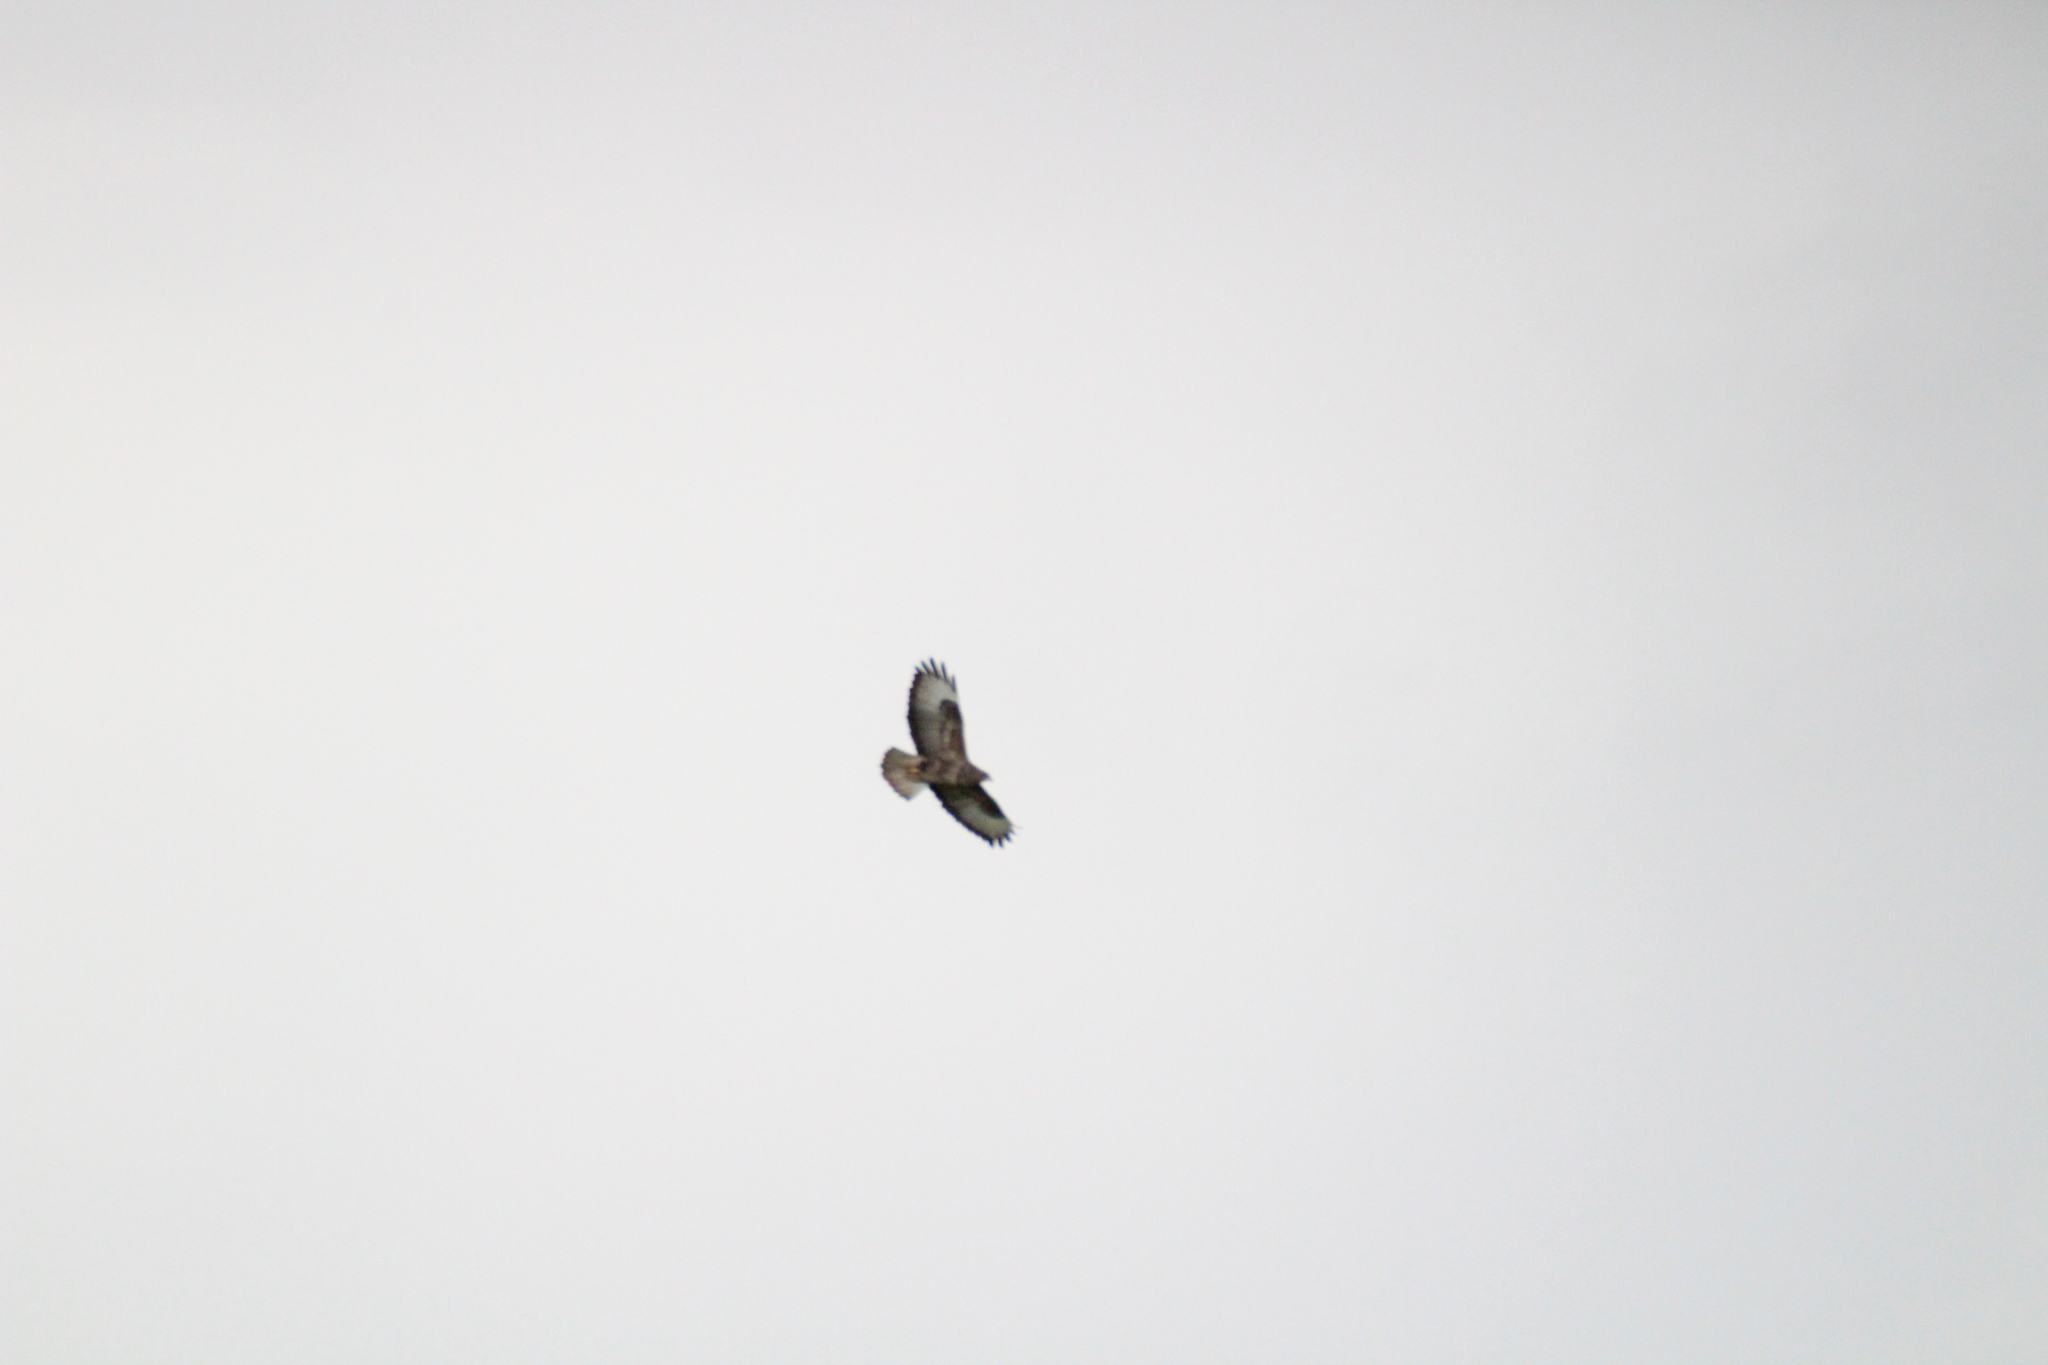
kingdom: Animalia
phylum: Chordata
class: Aves
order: Accipitriformes
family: Accipitridae
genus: Buteo
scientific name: Buteo buteo
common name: Common buzzard
